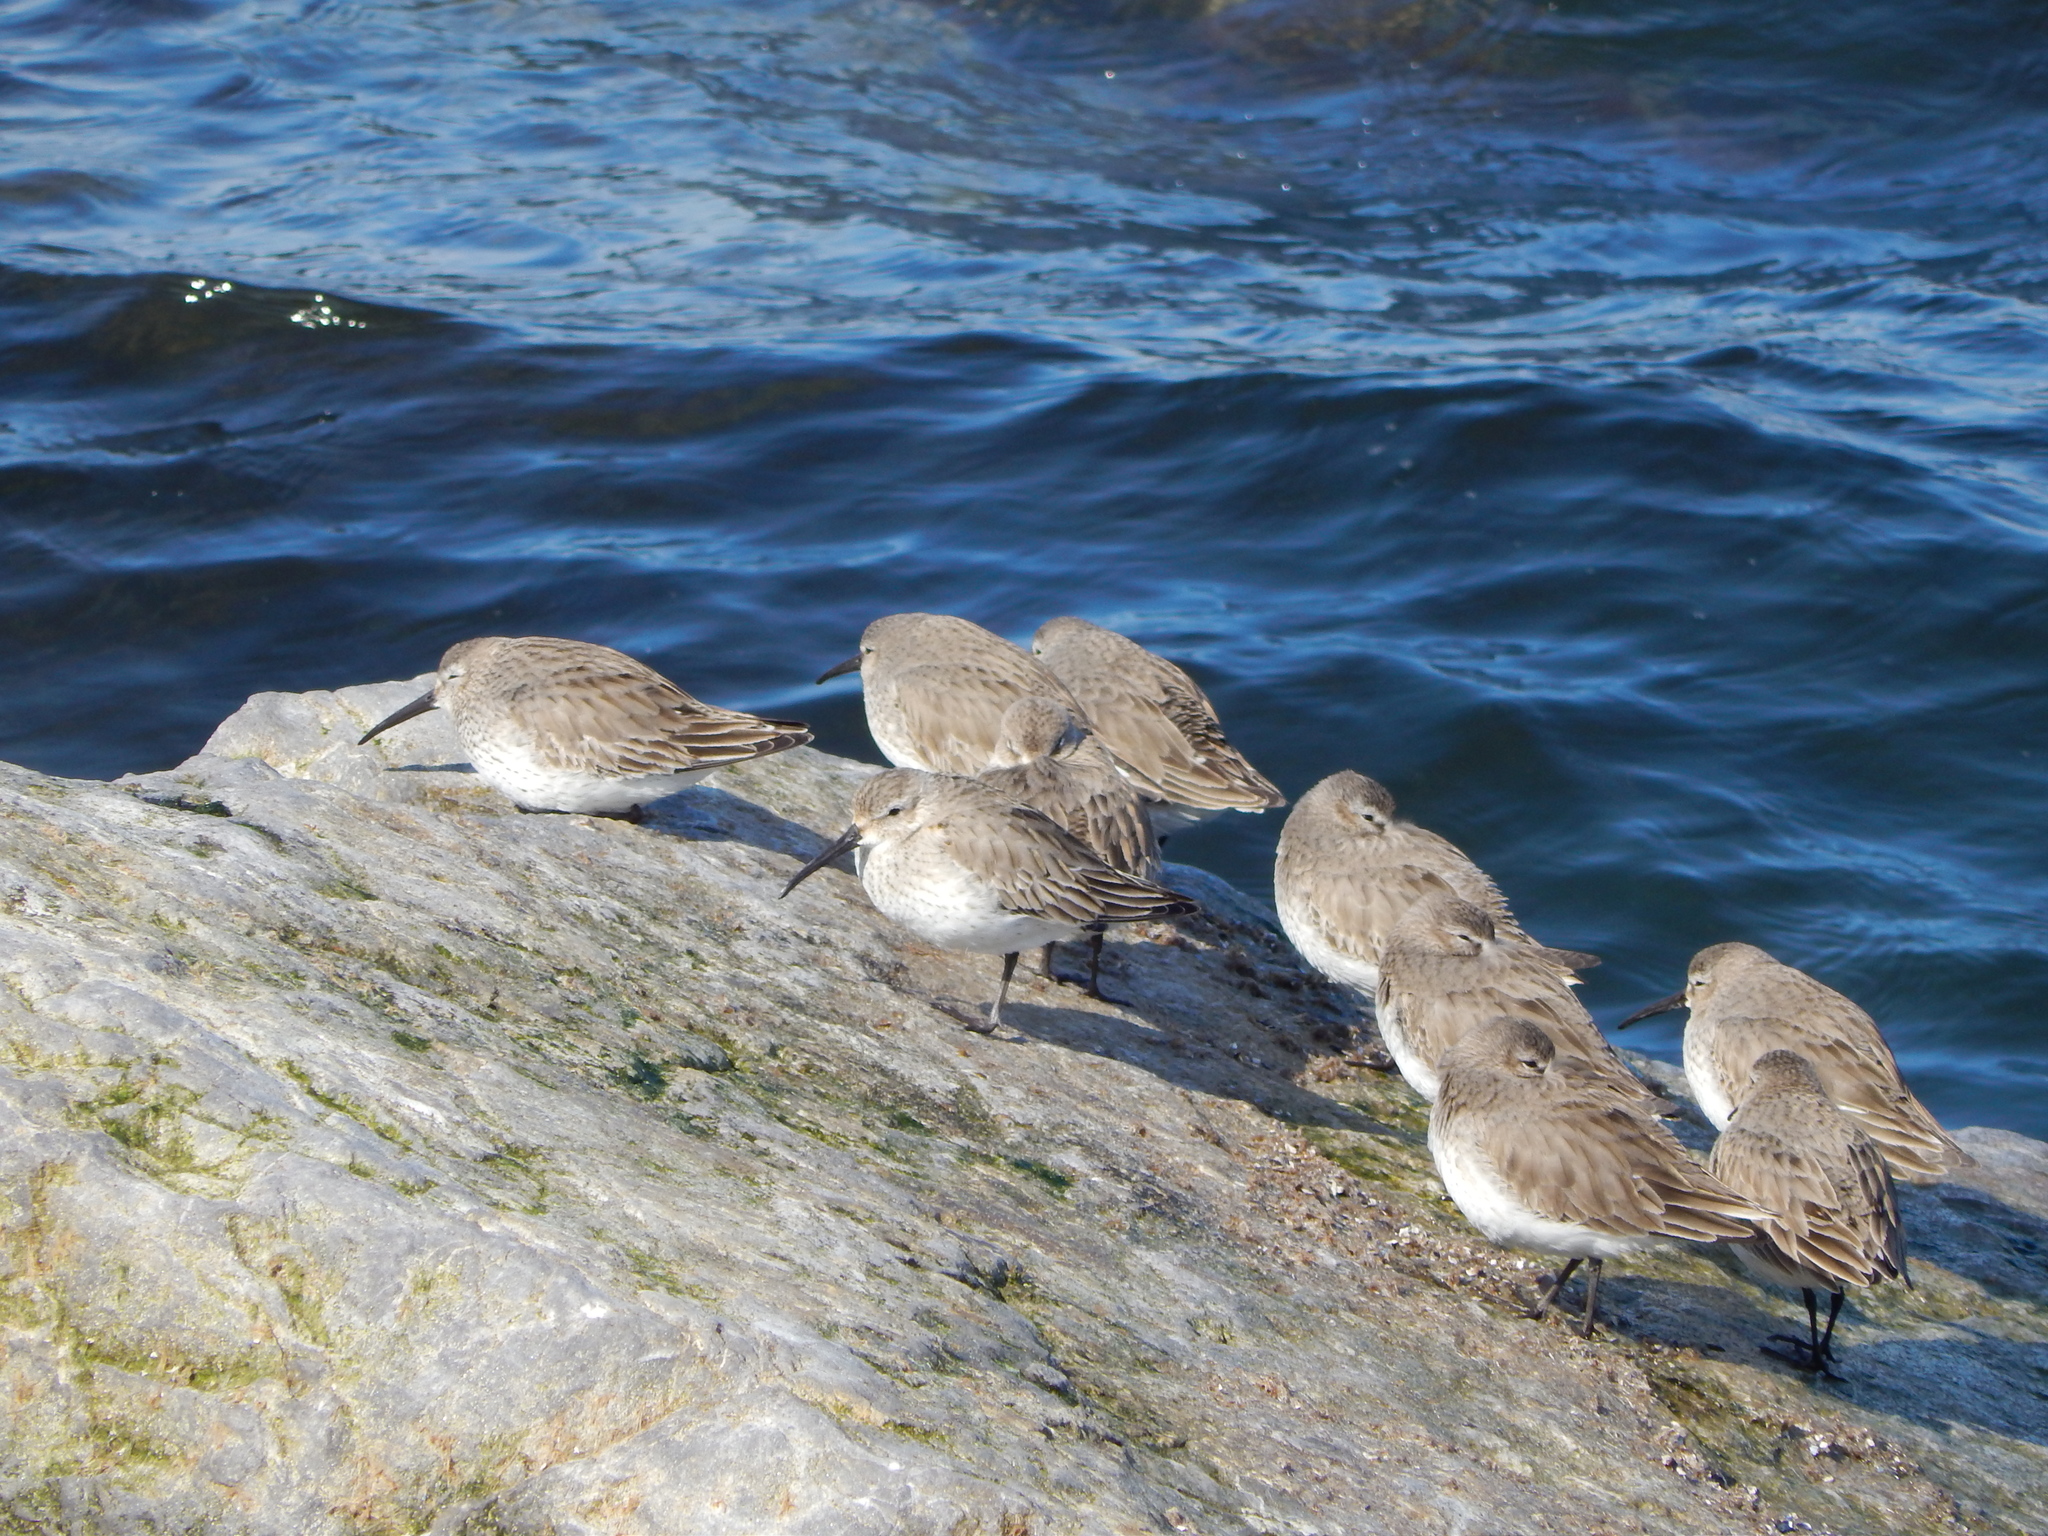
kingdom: Animalia
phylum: Chordata
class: Aves
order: Charadriiformes
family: Scolopacidae
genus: Calidris
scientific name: Calidris alpina
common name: Dunlin
